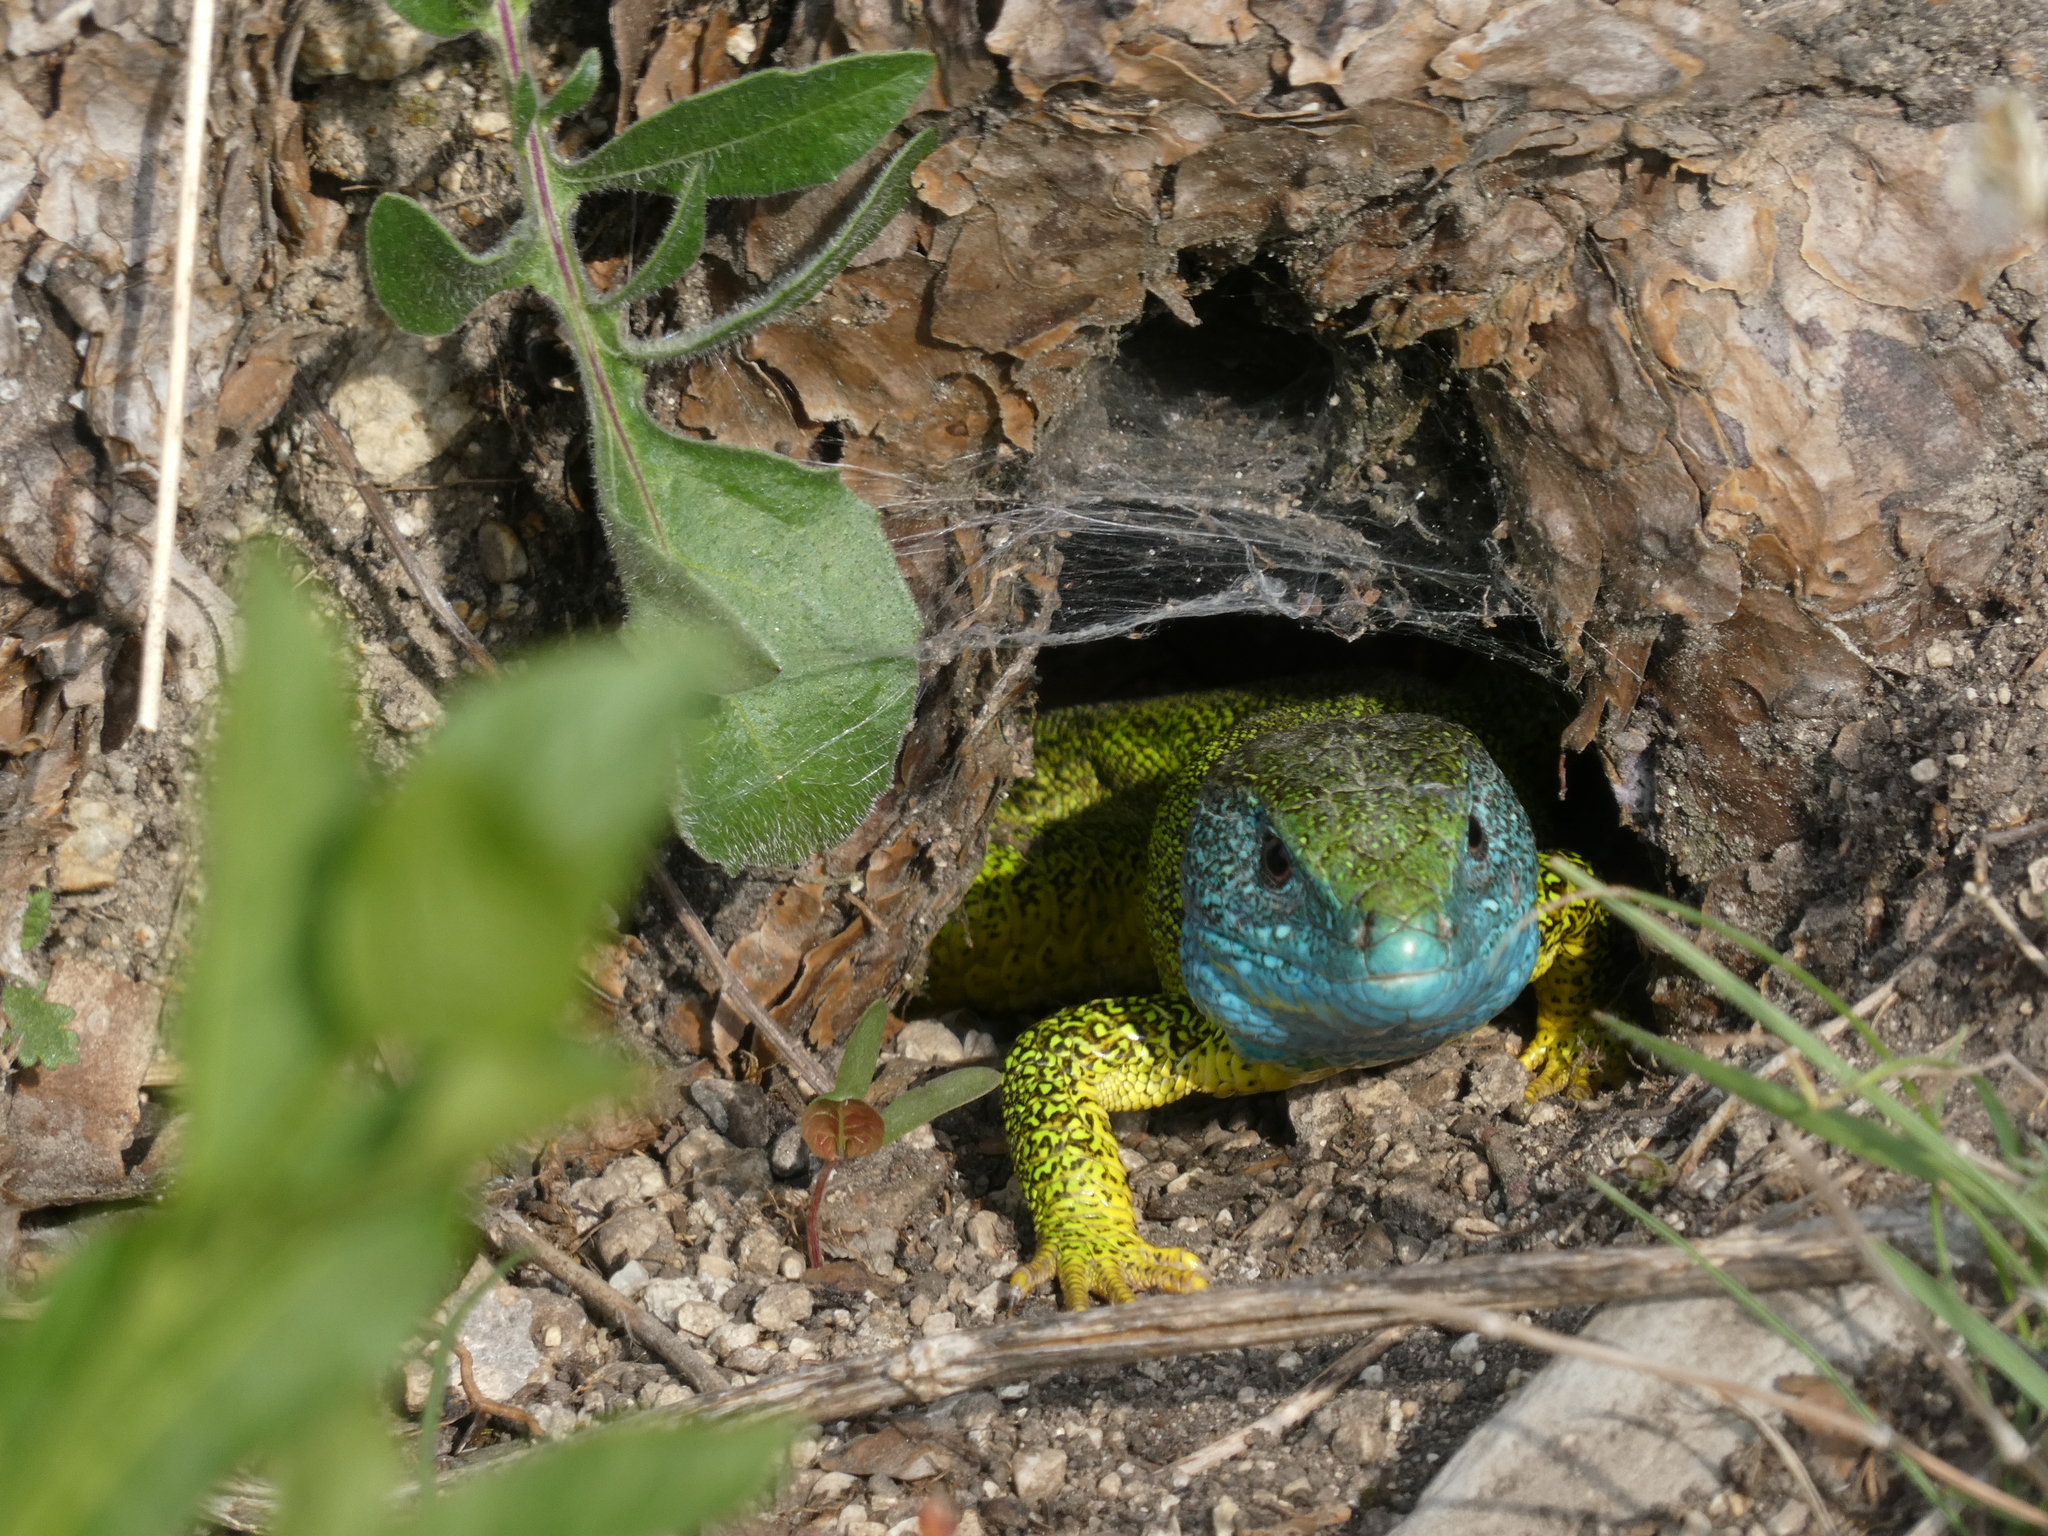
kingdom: Animalia
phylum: Chordata
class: Squamata
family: Lacertidae
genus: Lacerta
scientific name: Lacerta viridis
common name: European green lizard
